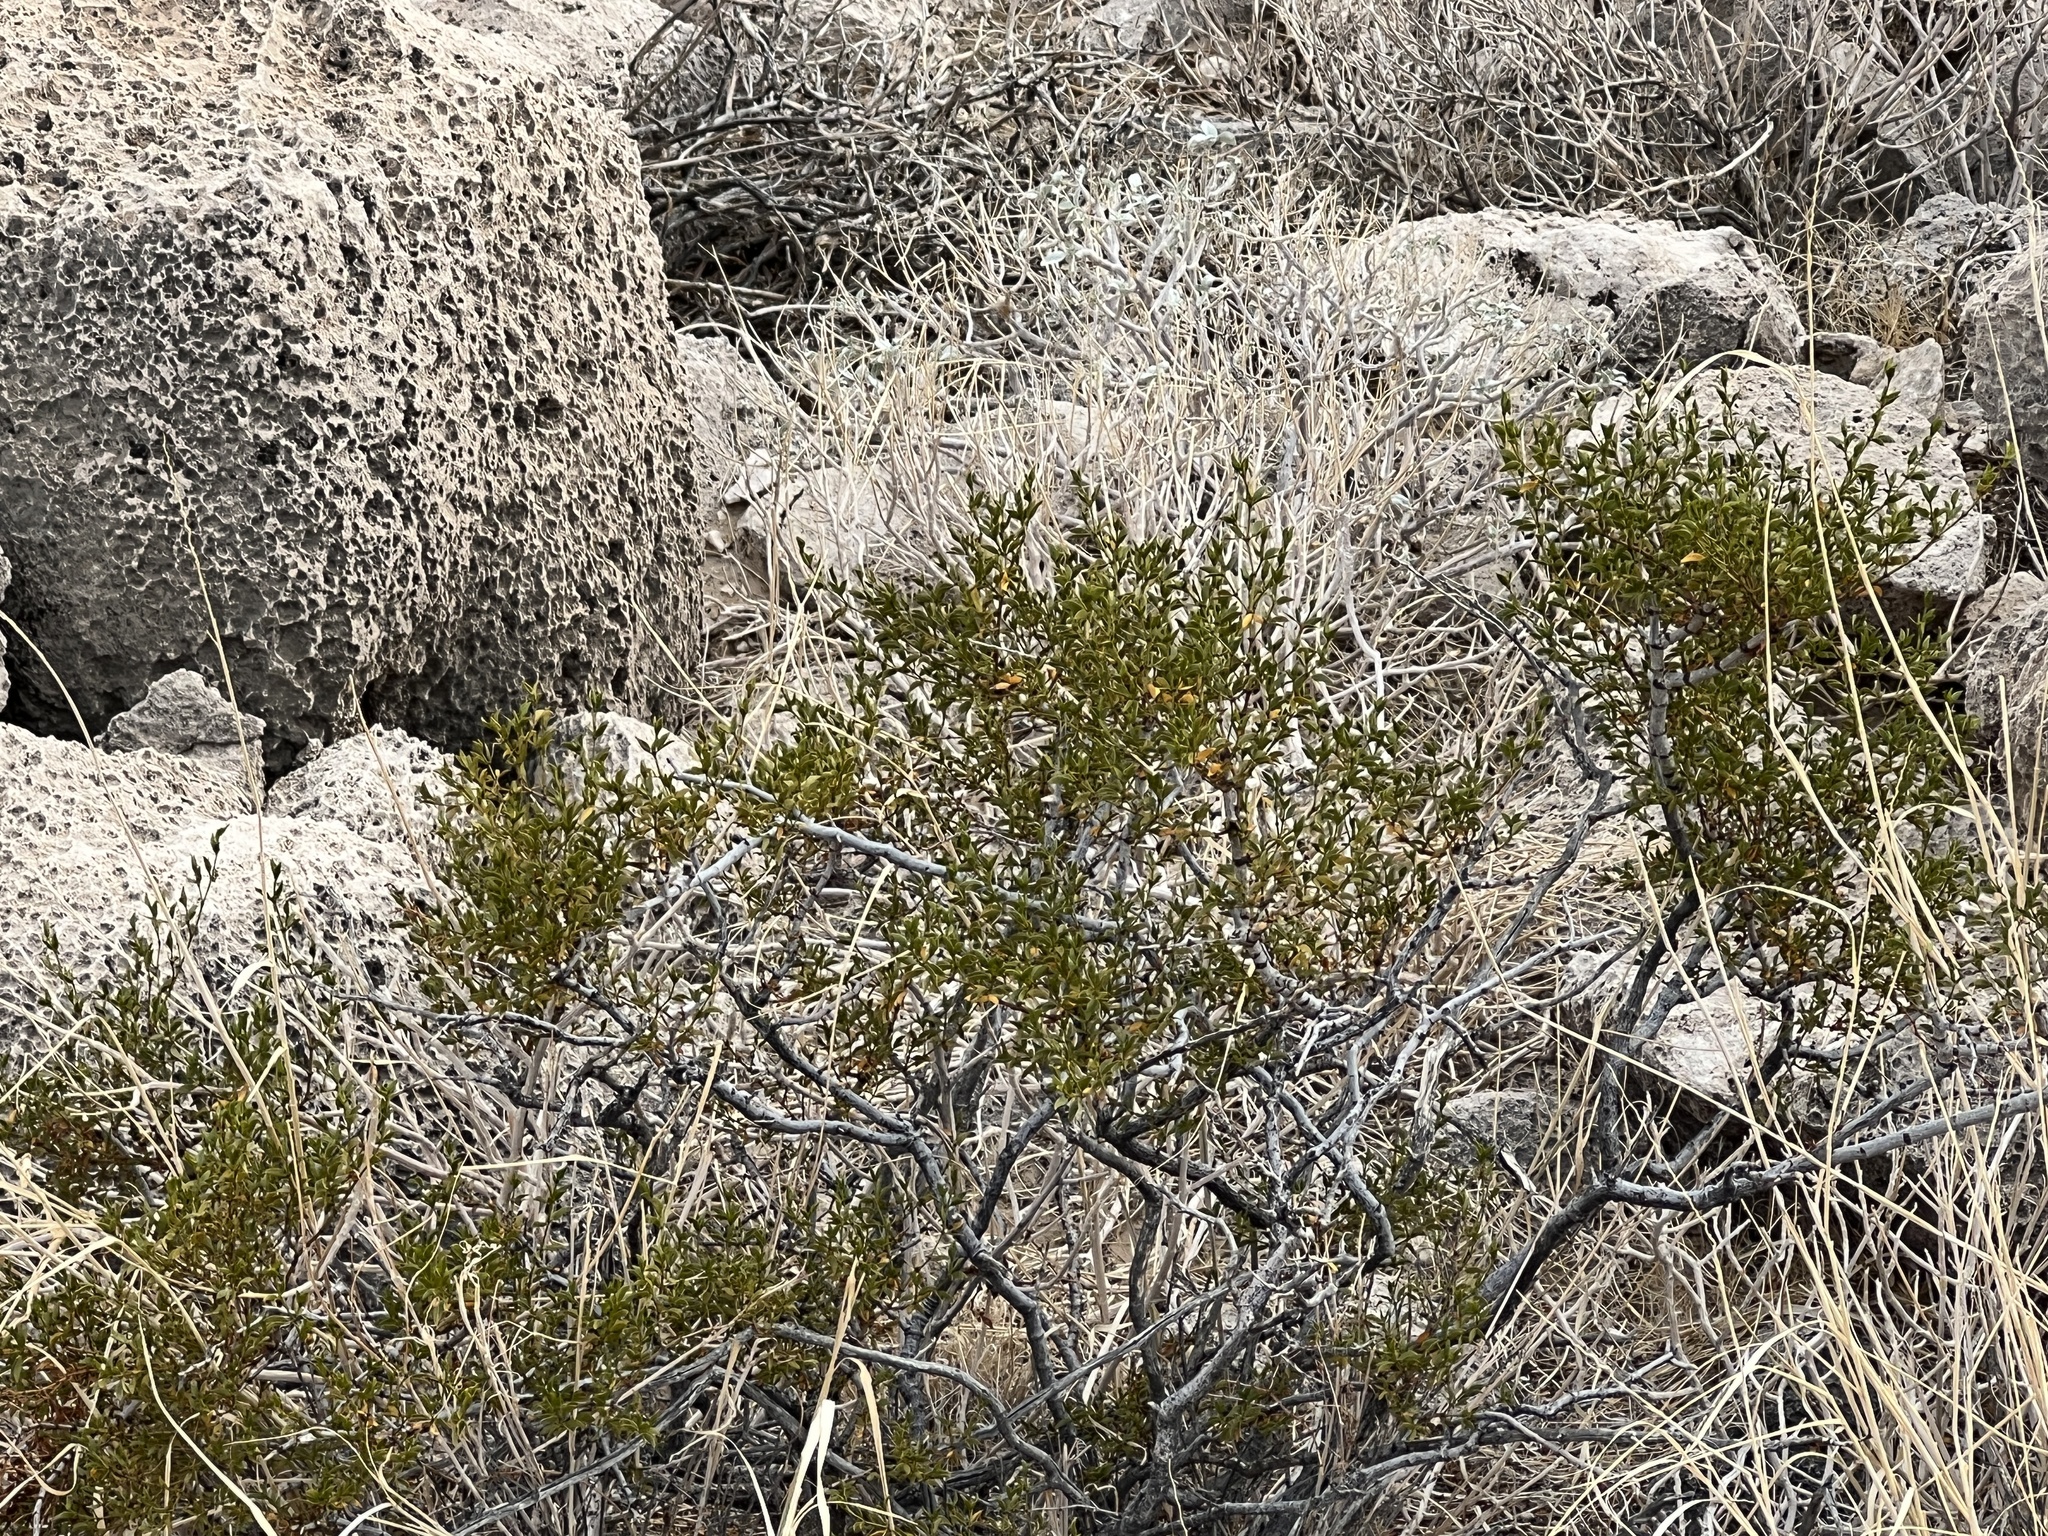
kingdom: Plantae
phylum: Tracheophyta
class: Magnoliopsida
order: Zygophyllales
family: Zygophyllaceae
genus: Larrea
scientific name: Larrea tridentata
